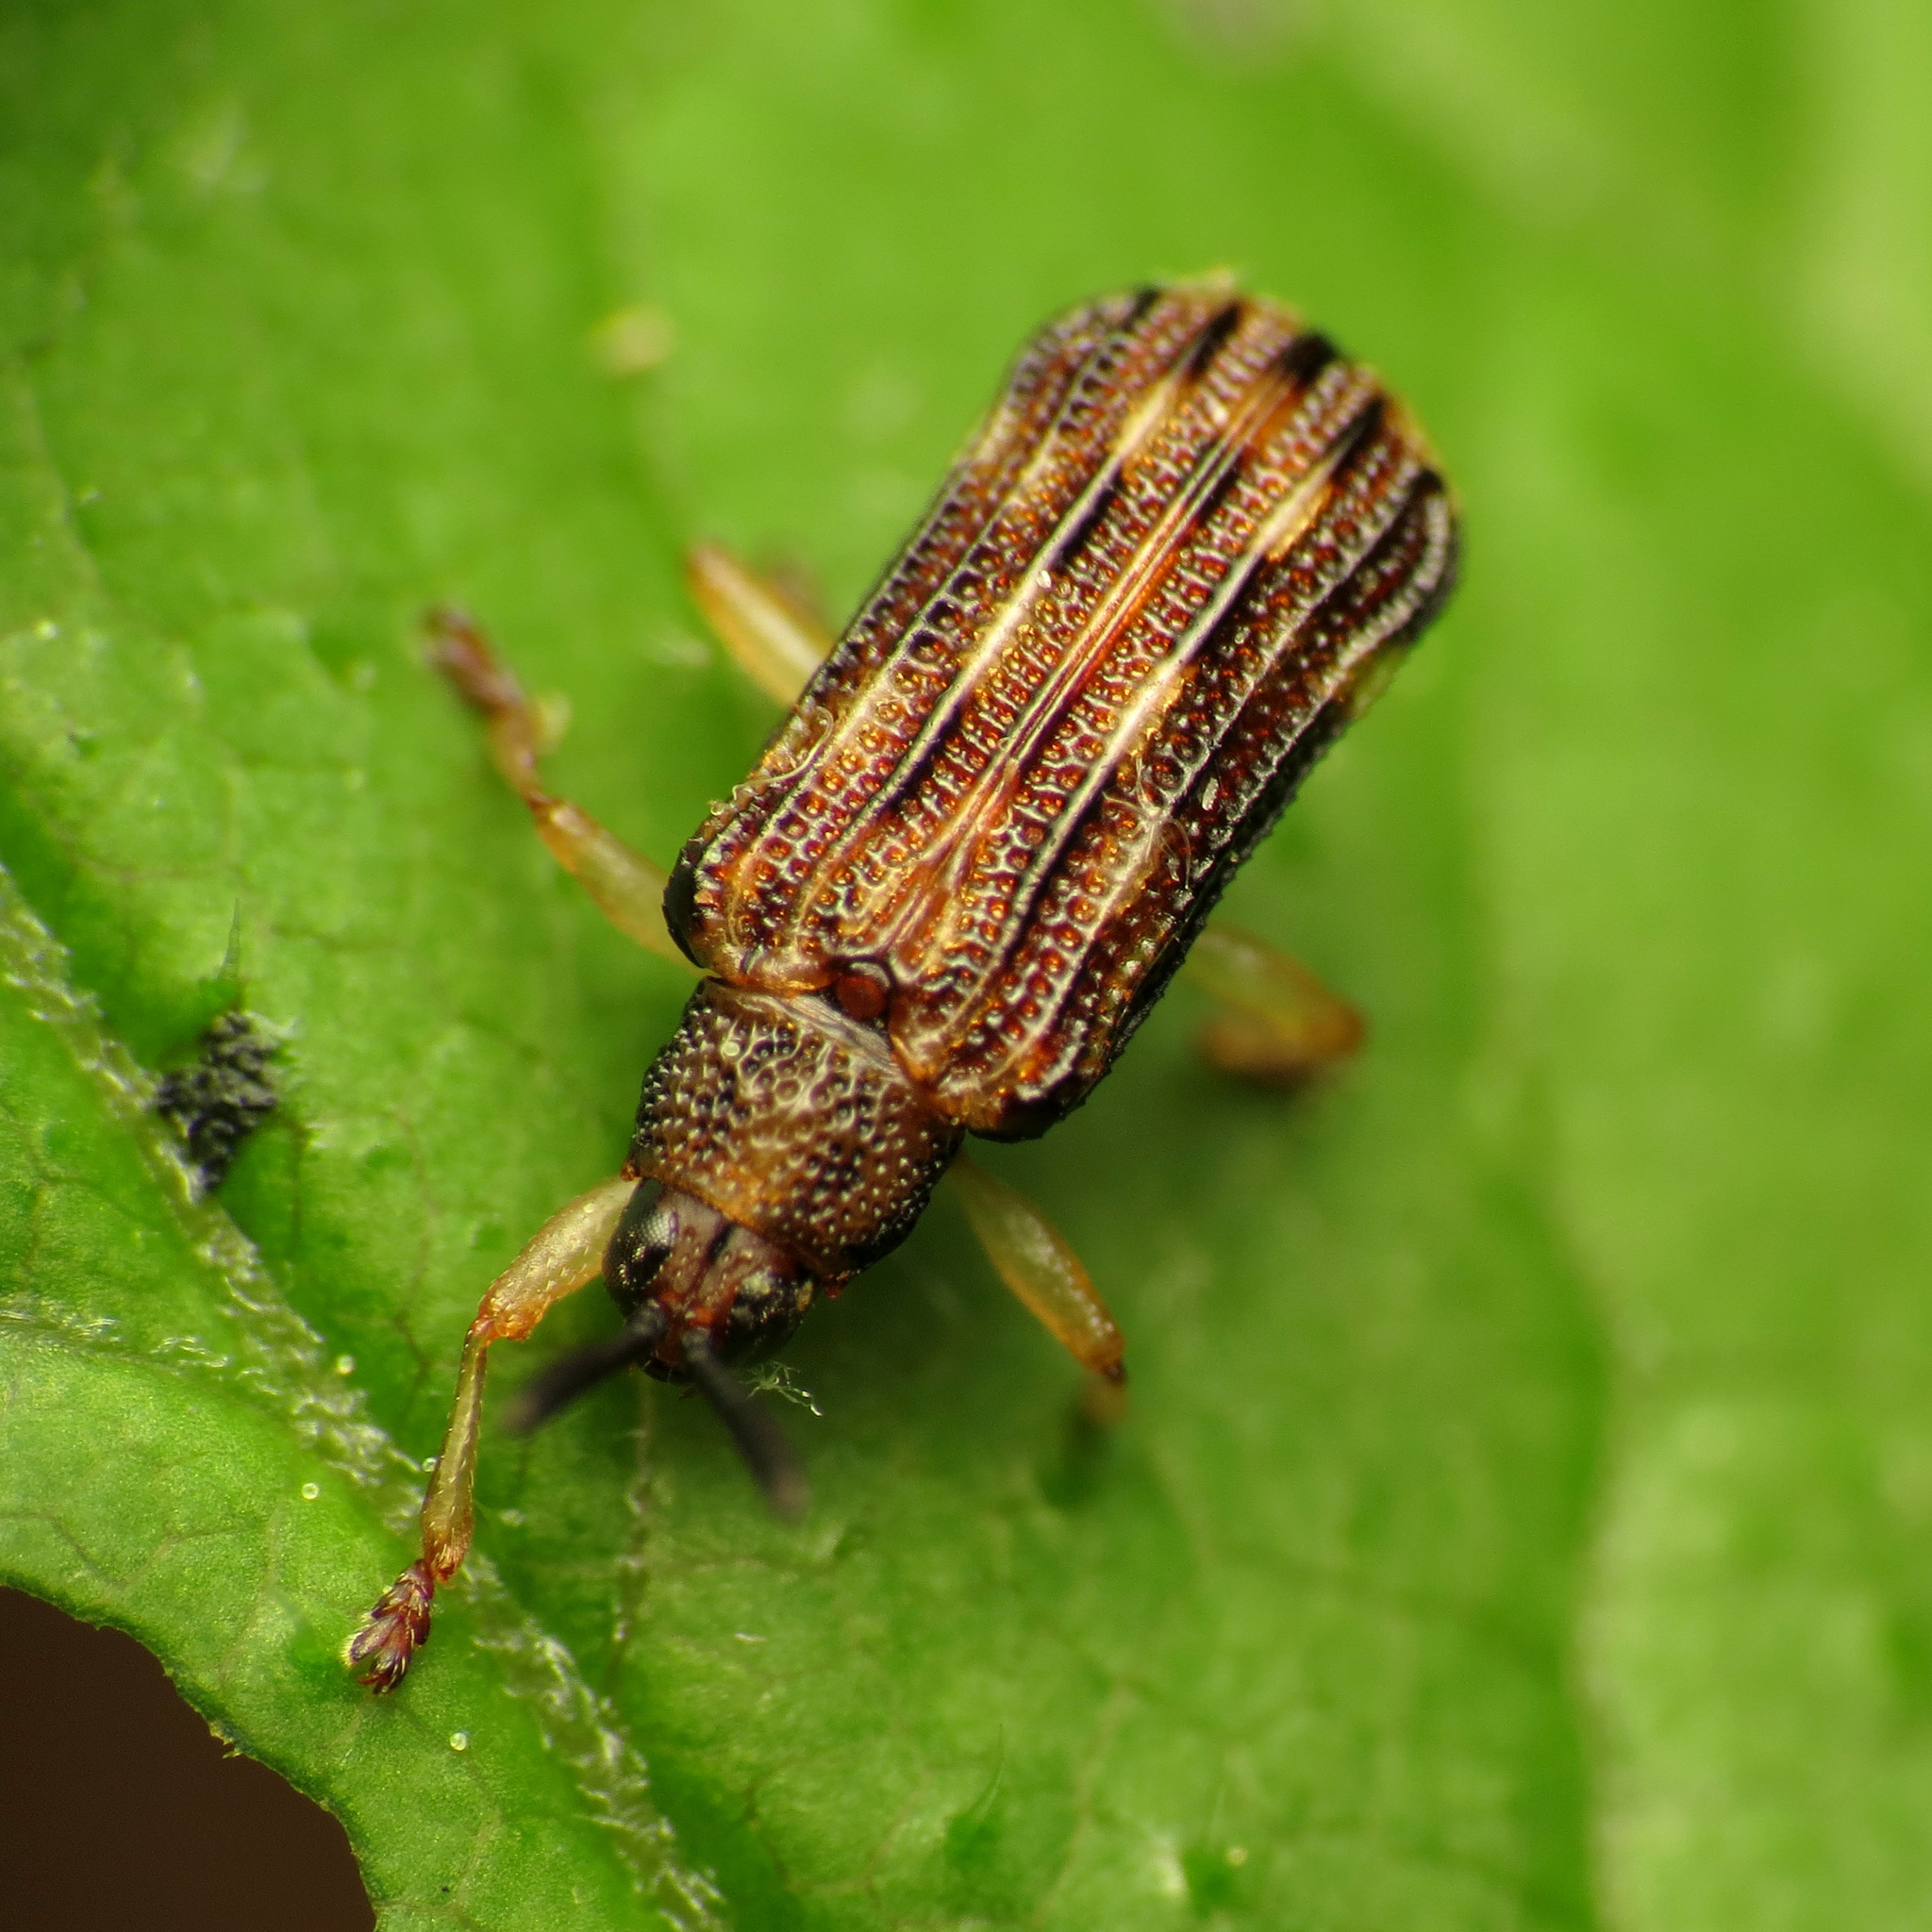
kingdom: Animalia
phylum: Arthropoda
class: Insecta
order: Coleoptera
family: Chrysomelidae
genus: Sumitrosis
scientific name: Sumitrosis inaequalis
